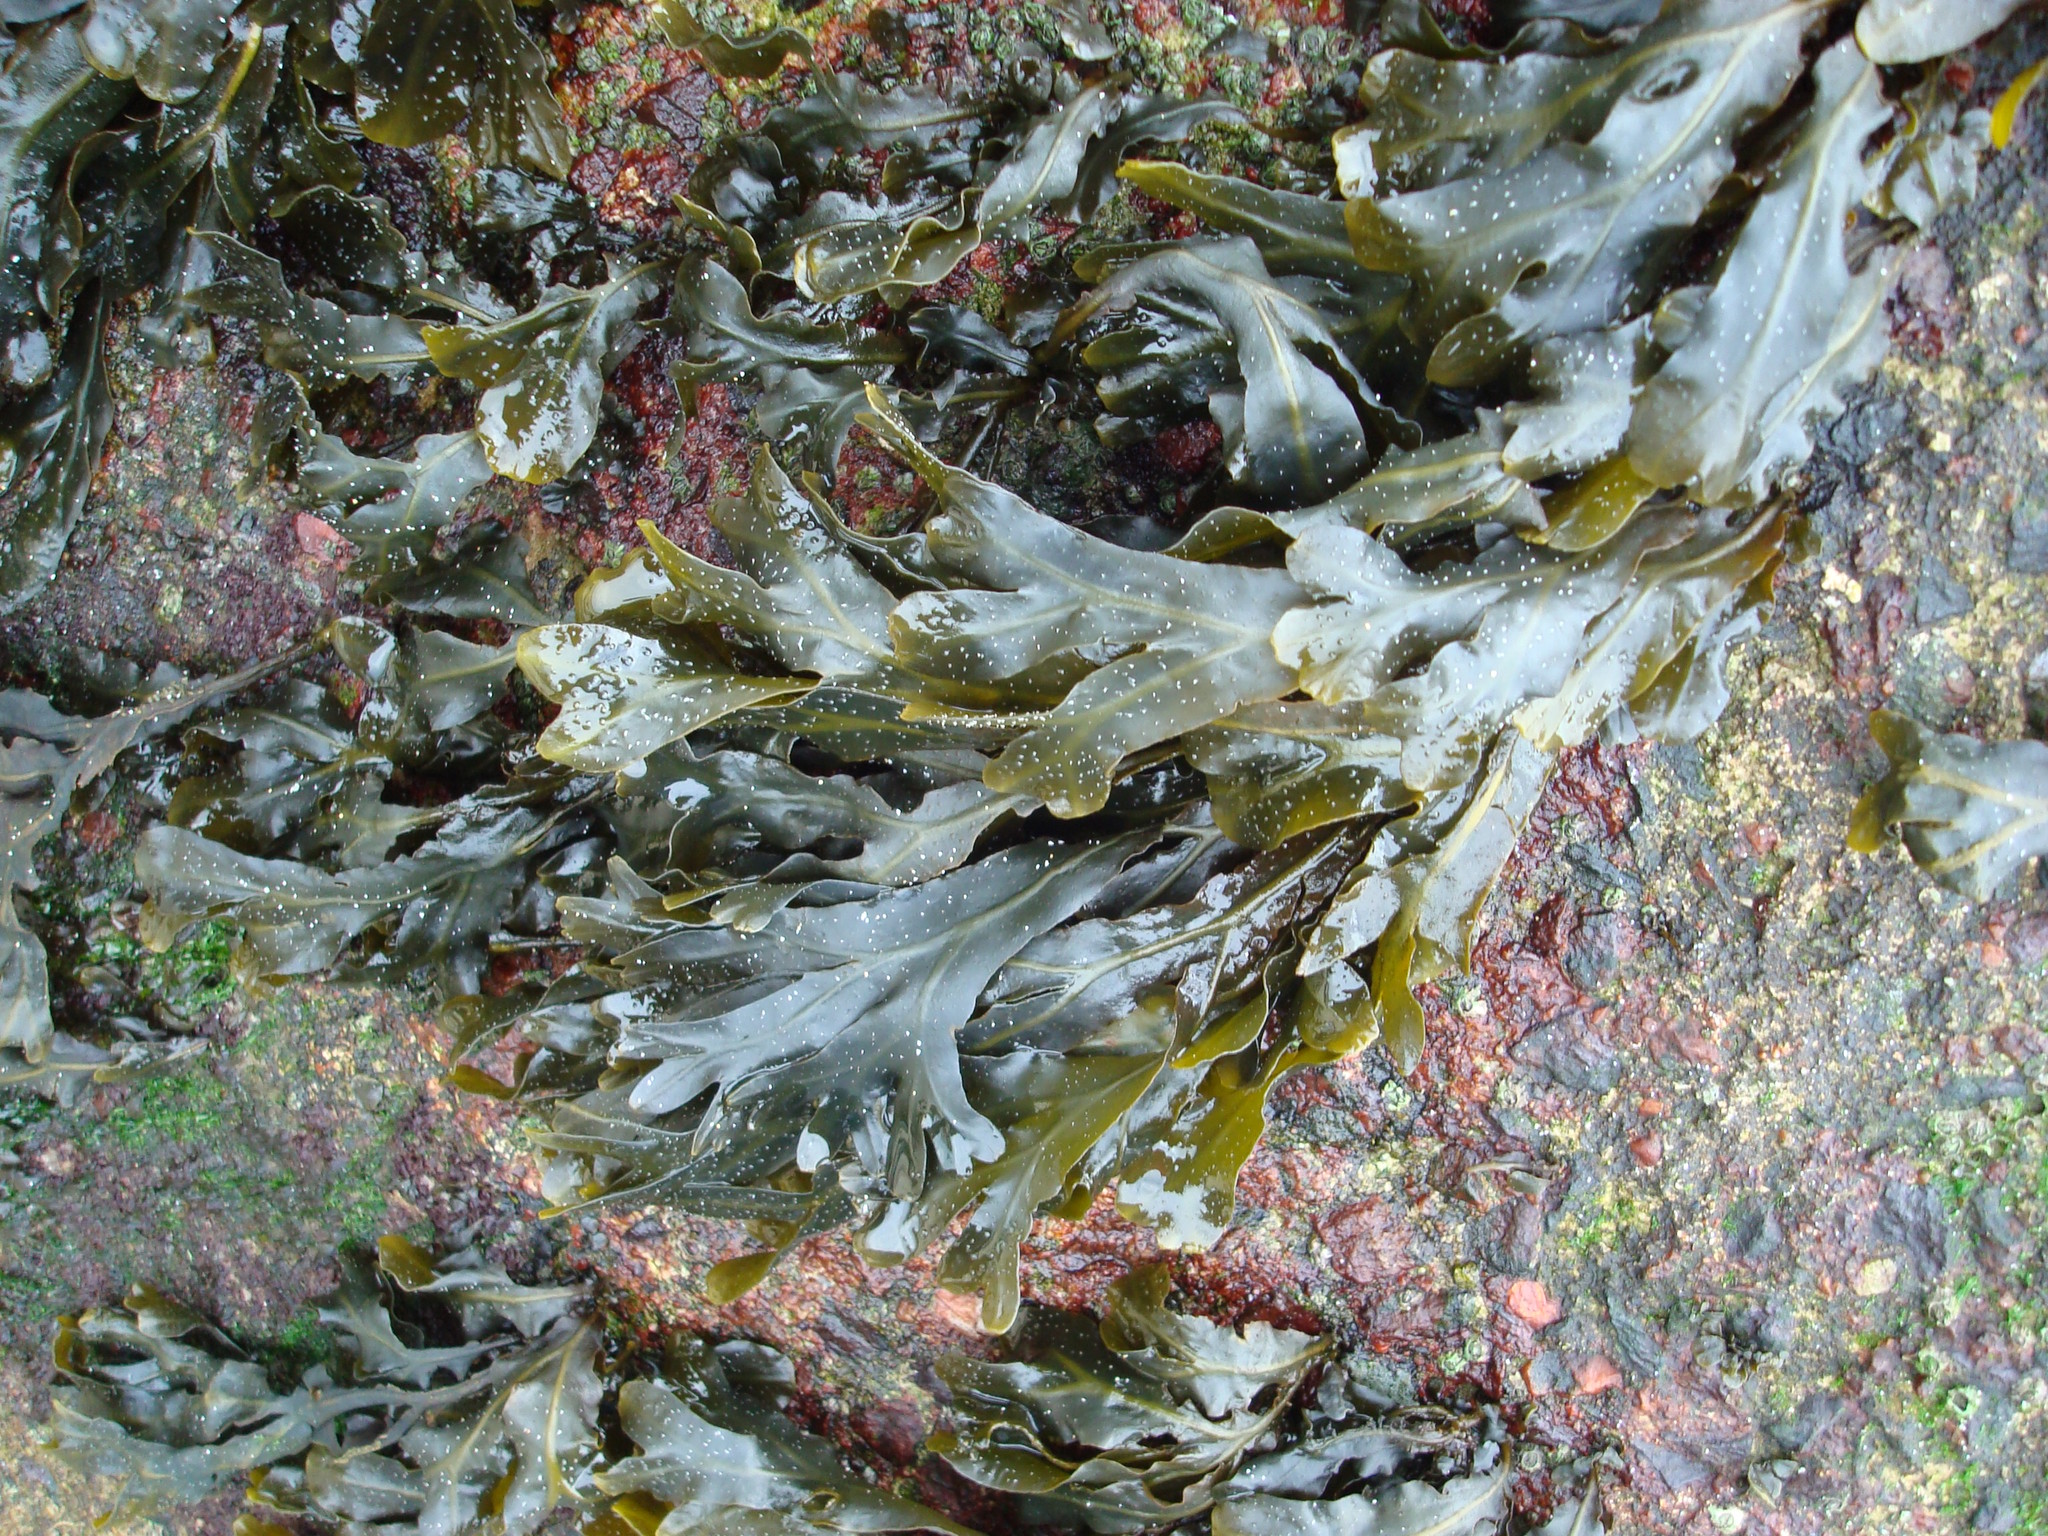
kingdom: Chromista
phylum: Ochrophyta
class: Phaeophyceae
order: Fucales
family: Fucaceae
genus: Fucus
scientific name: Fucus spiralis
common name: Spiral wrack
